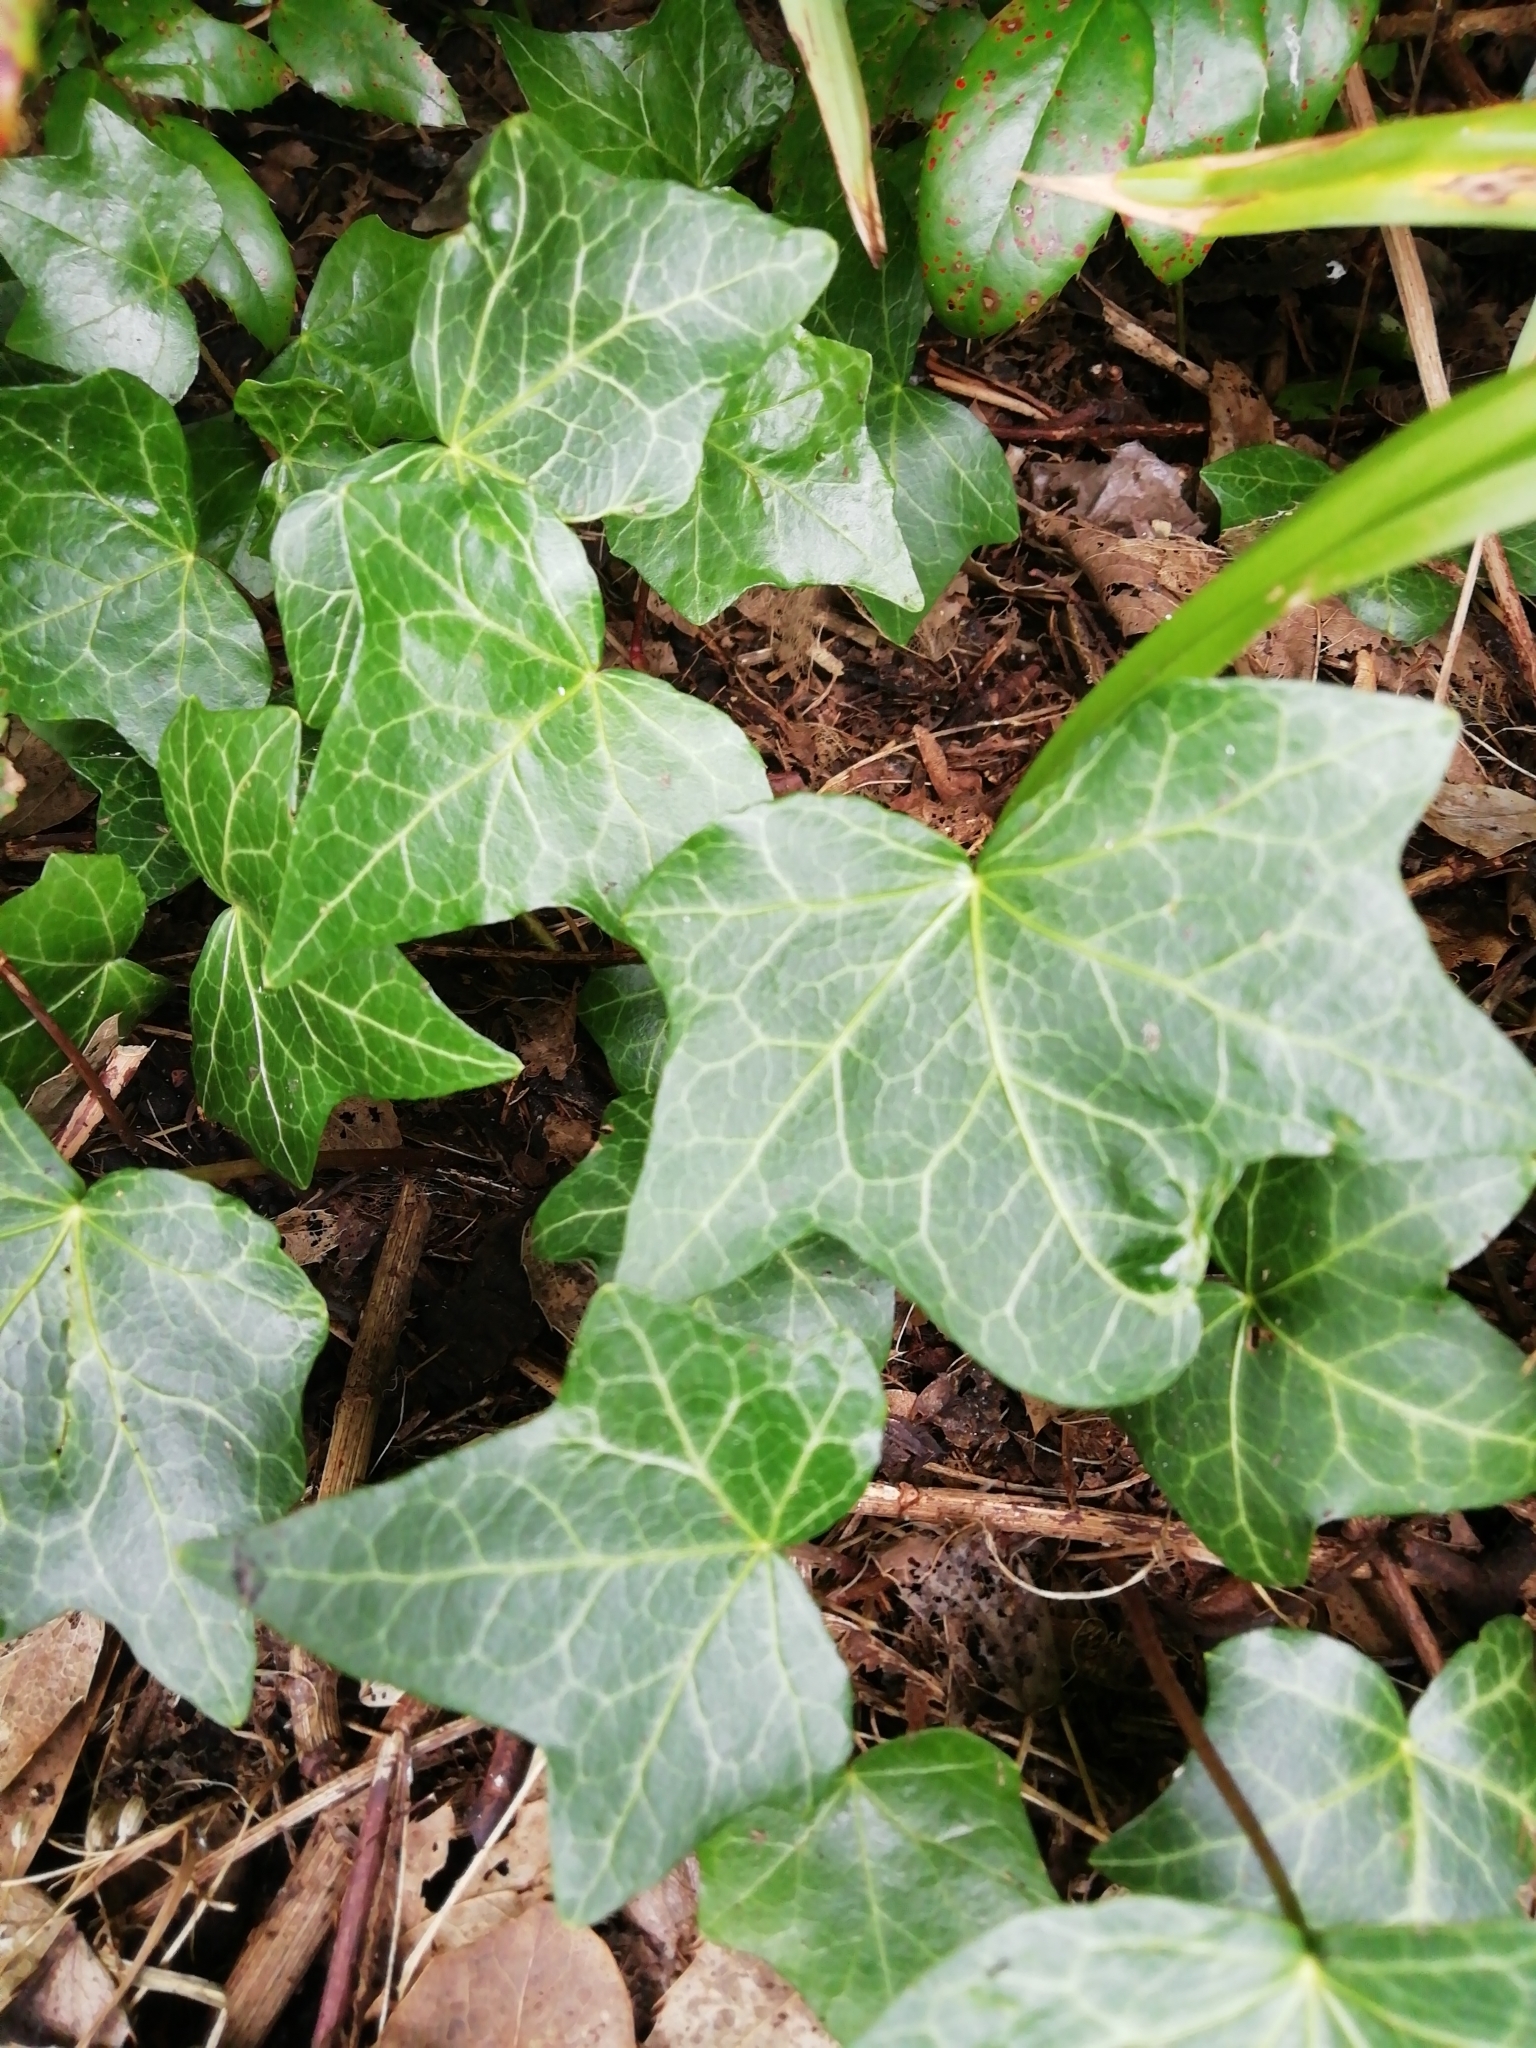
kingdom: Plantae
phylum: Tracheophyta
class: Magnoliopsida
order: Apiales
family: Araliaceae
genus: Hedera
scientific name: Hedera helix
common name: Ivy
